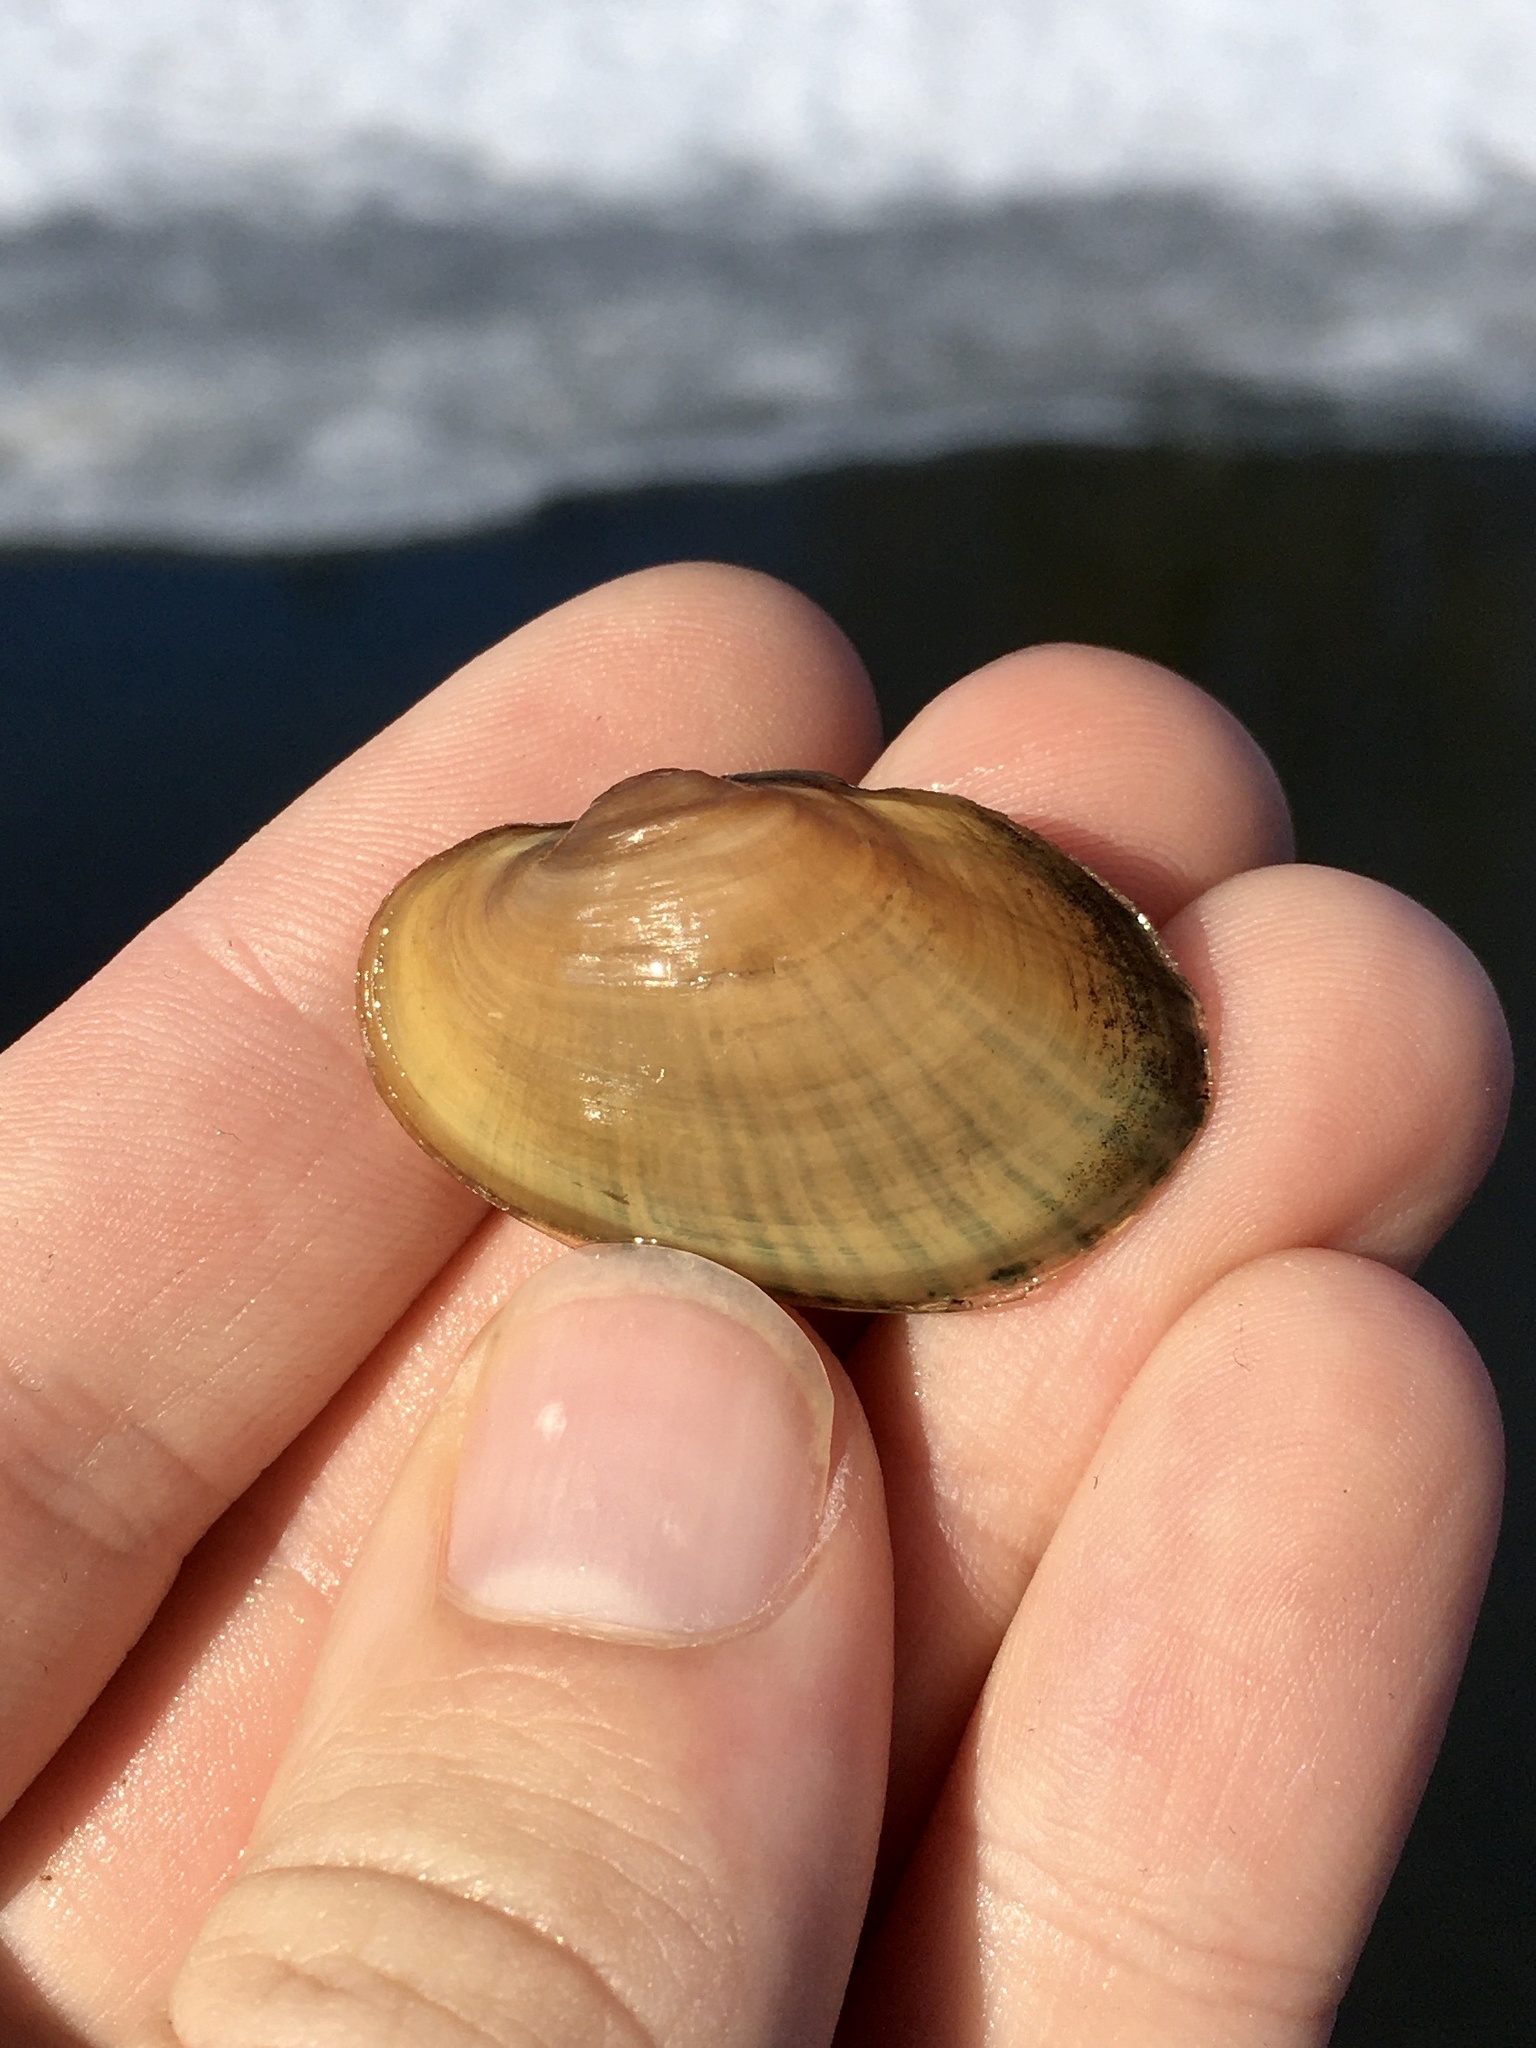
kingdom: Animalia
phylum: Mollusca
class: Bivalvia
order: Unionida
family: Unionidae
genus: Lampsilis
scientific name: Lampsilis cardium
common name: Plain pocketbook
